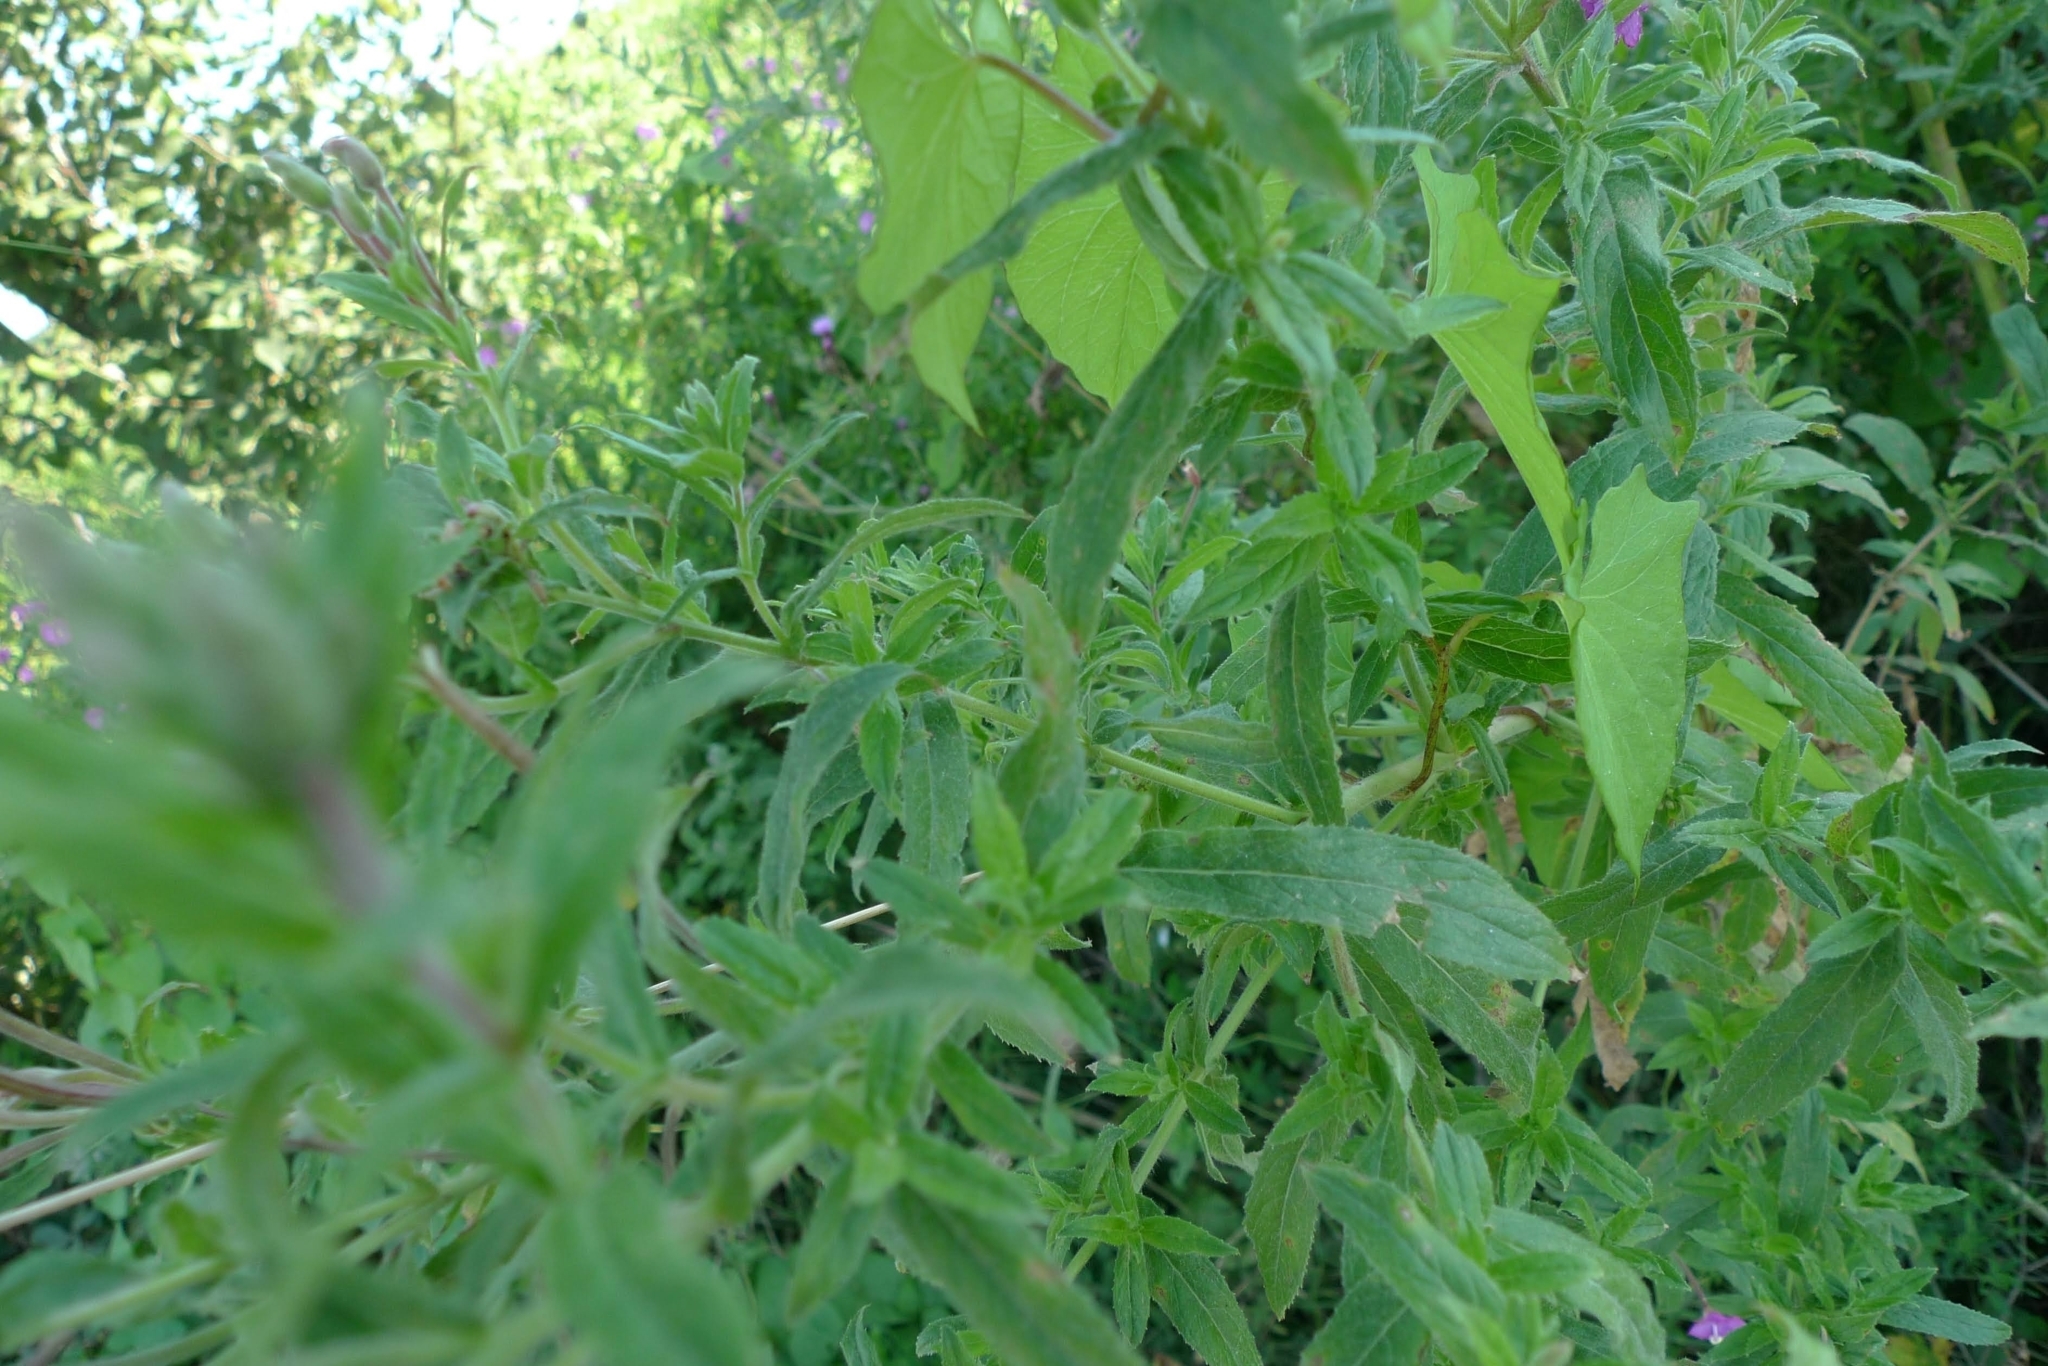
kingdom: Plantae
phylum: Tracheophyta
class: Magnoliopsida
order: Myrtales
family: Onagraceae
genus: Epilobium
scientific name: Epilobium hirsutum
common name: Great willowherb
